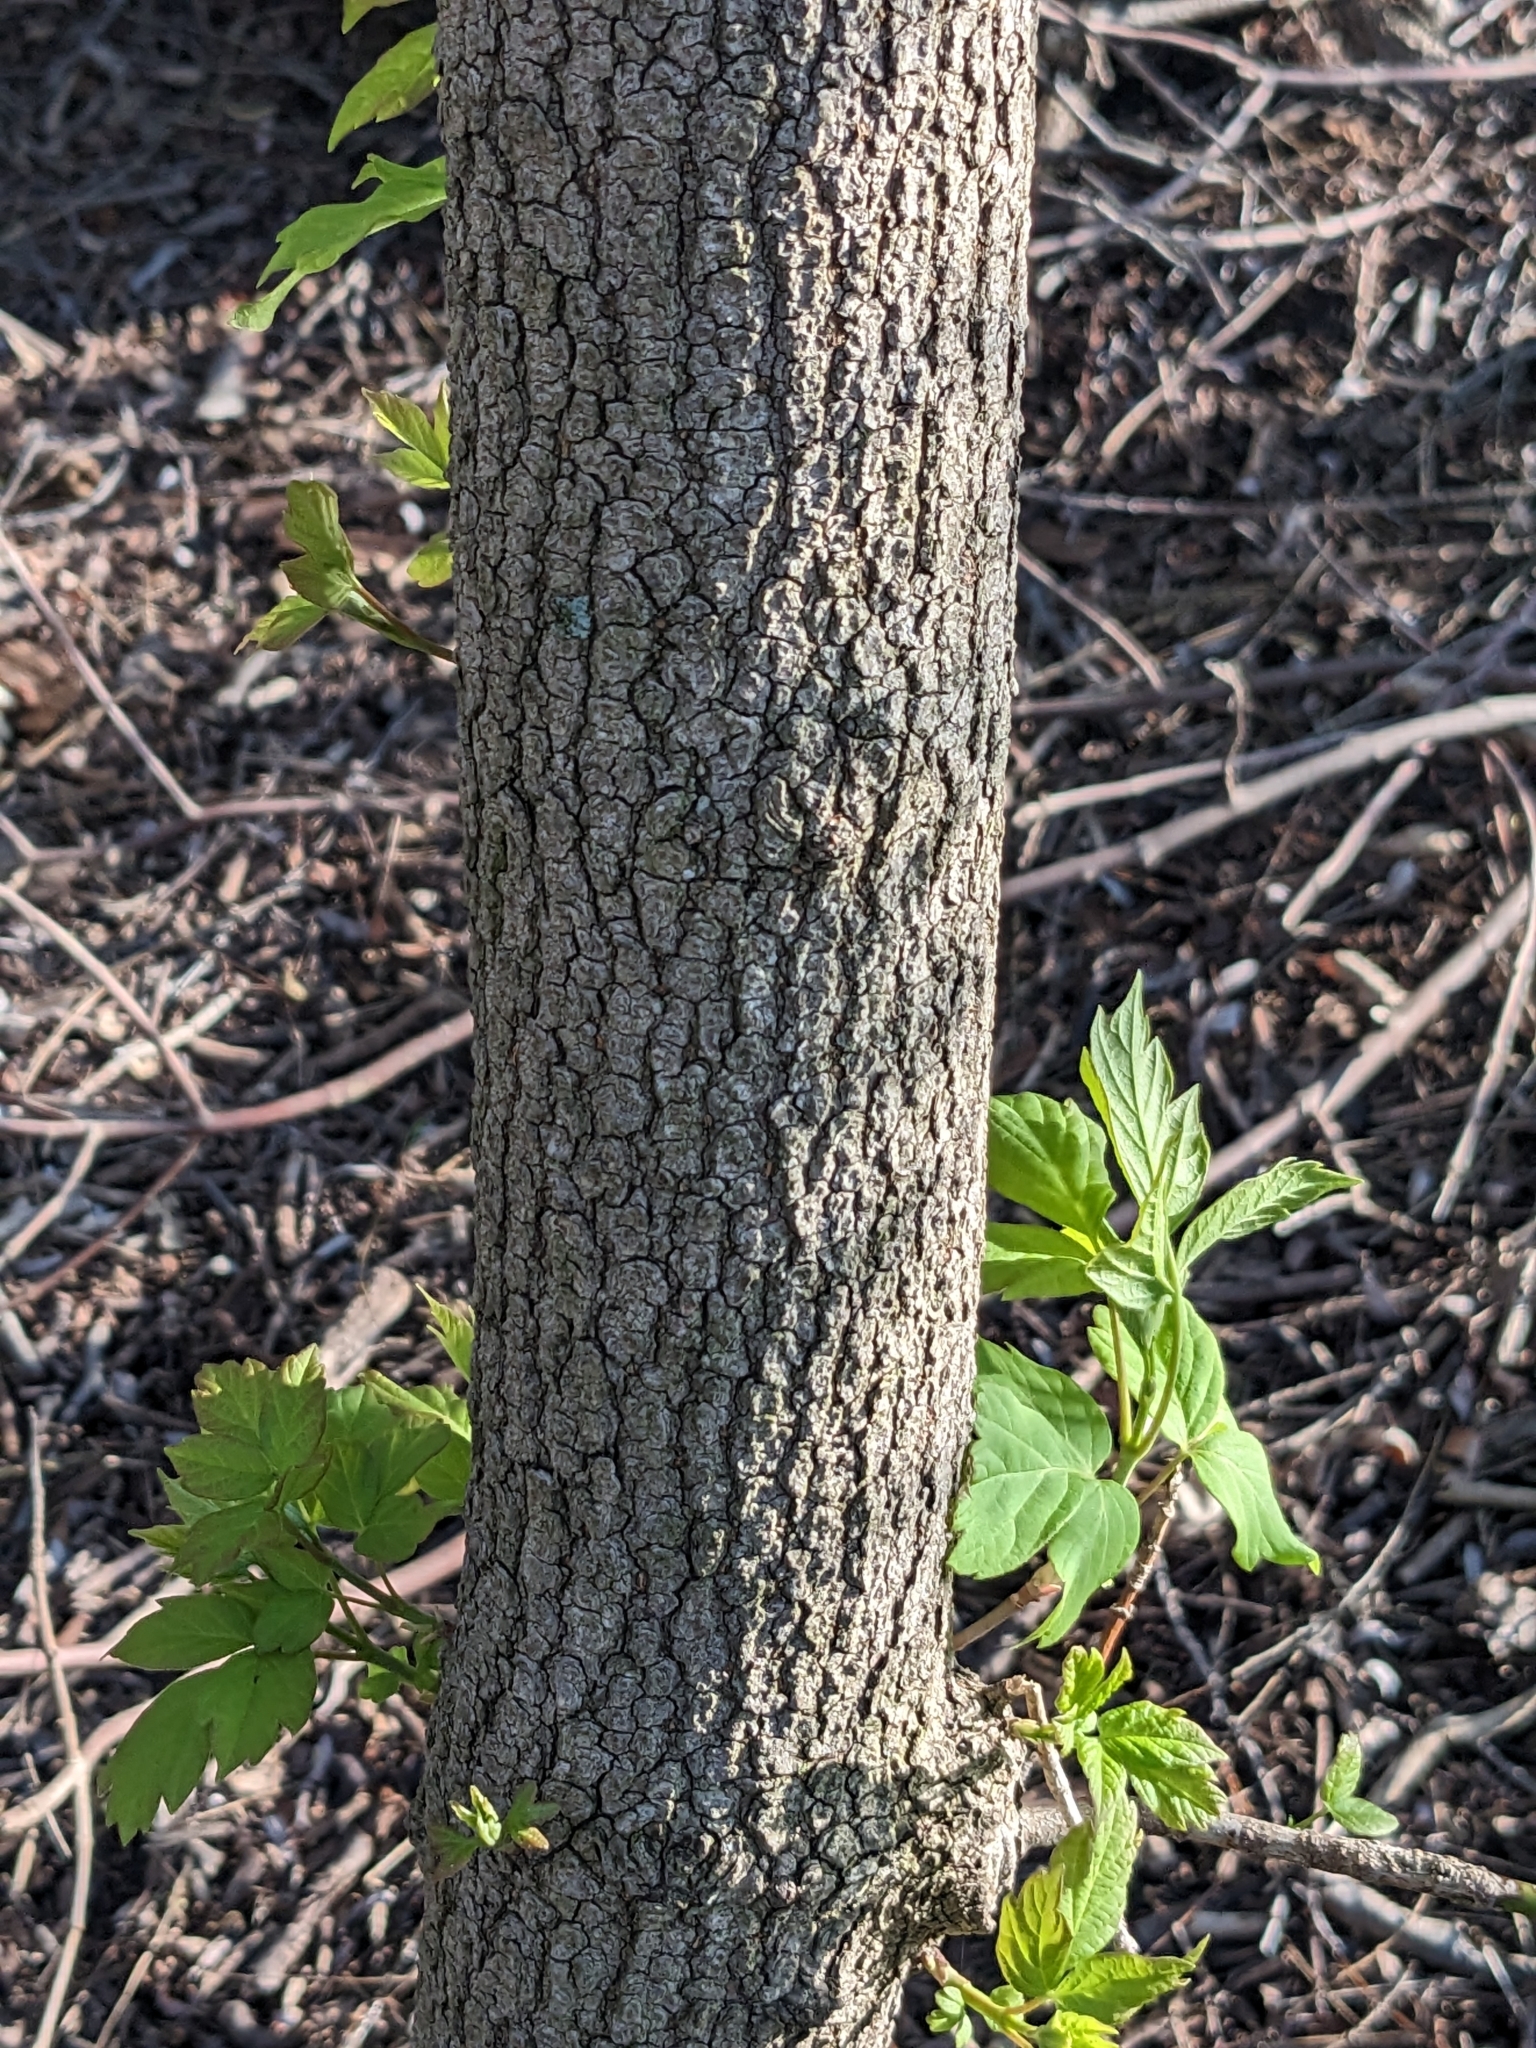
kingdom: Plantae
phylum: Tracheophyta
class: Magnoliopsida
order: Sapindales
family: Sapindaceae
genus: Acer
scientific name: Acer negundo
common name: Ashleaf maple
